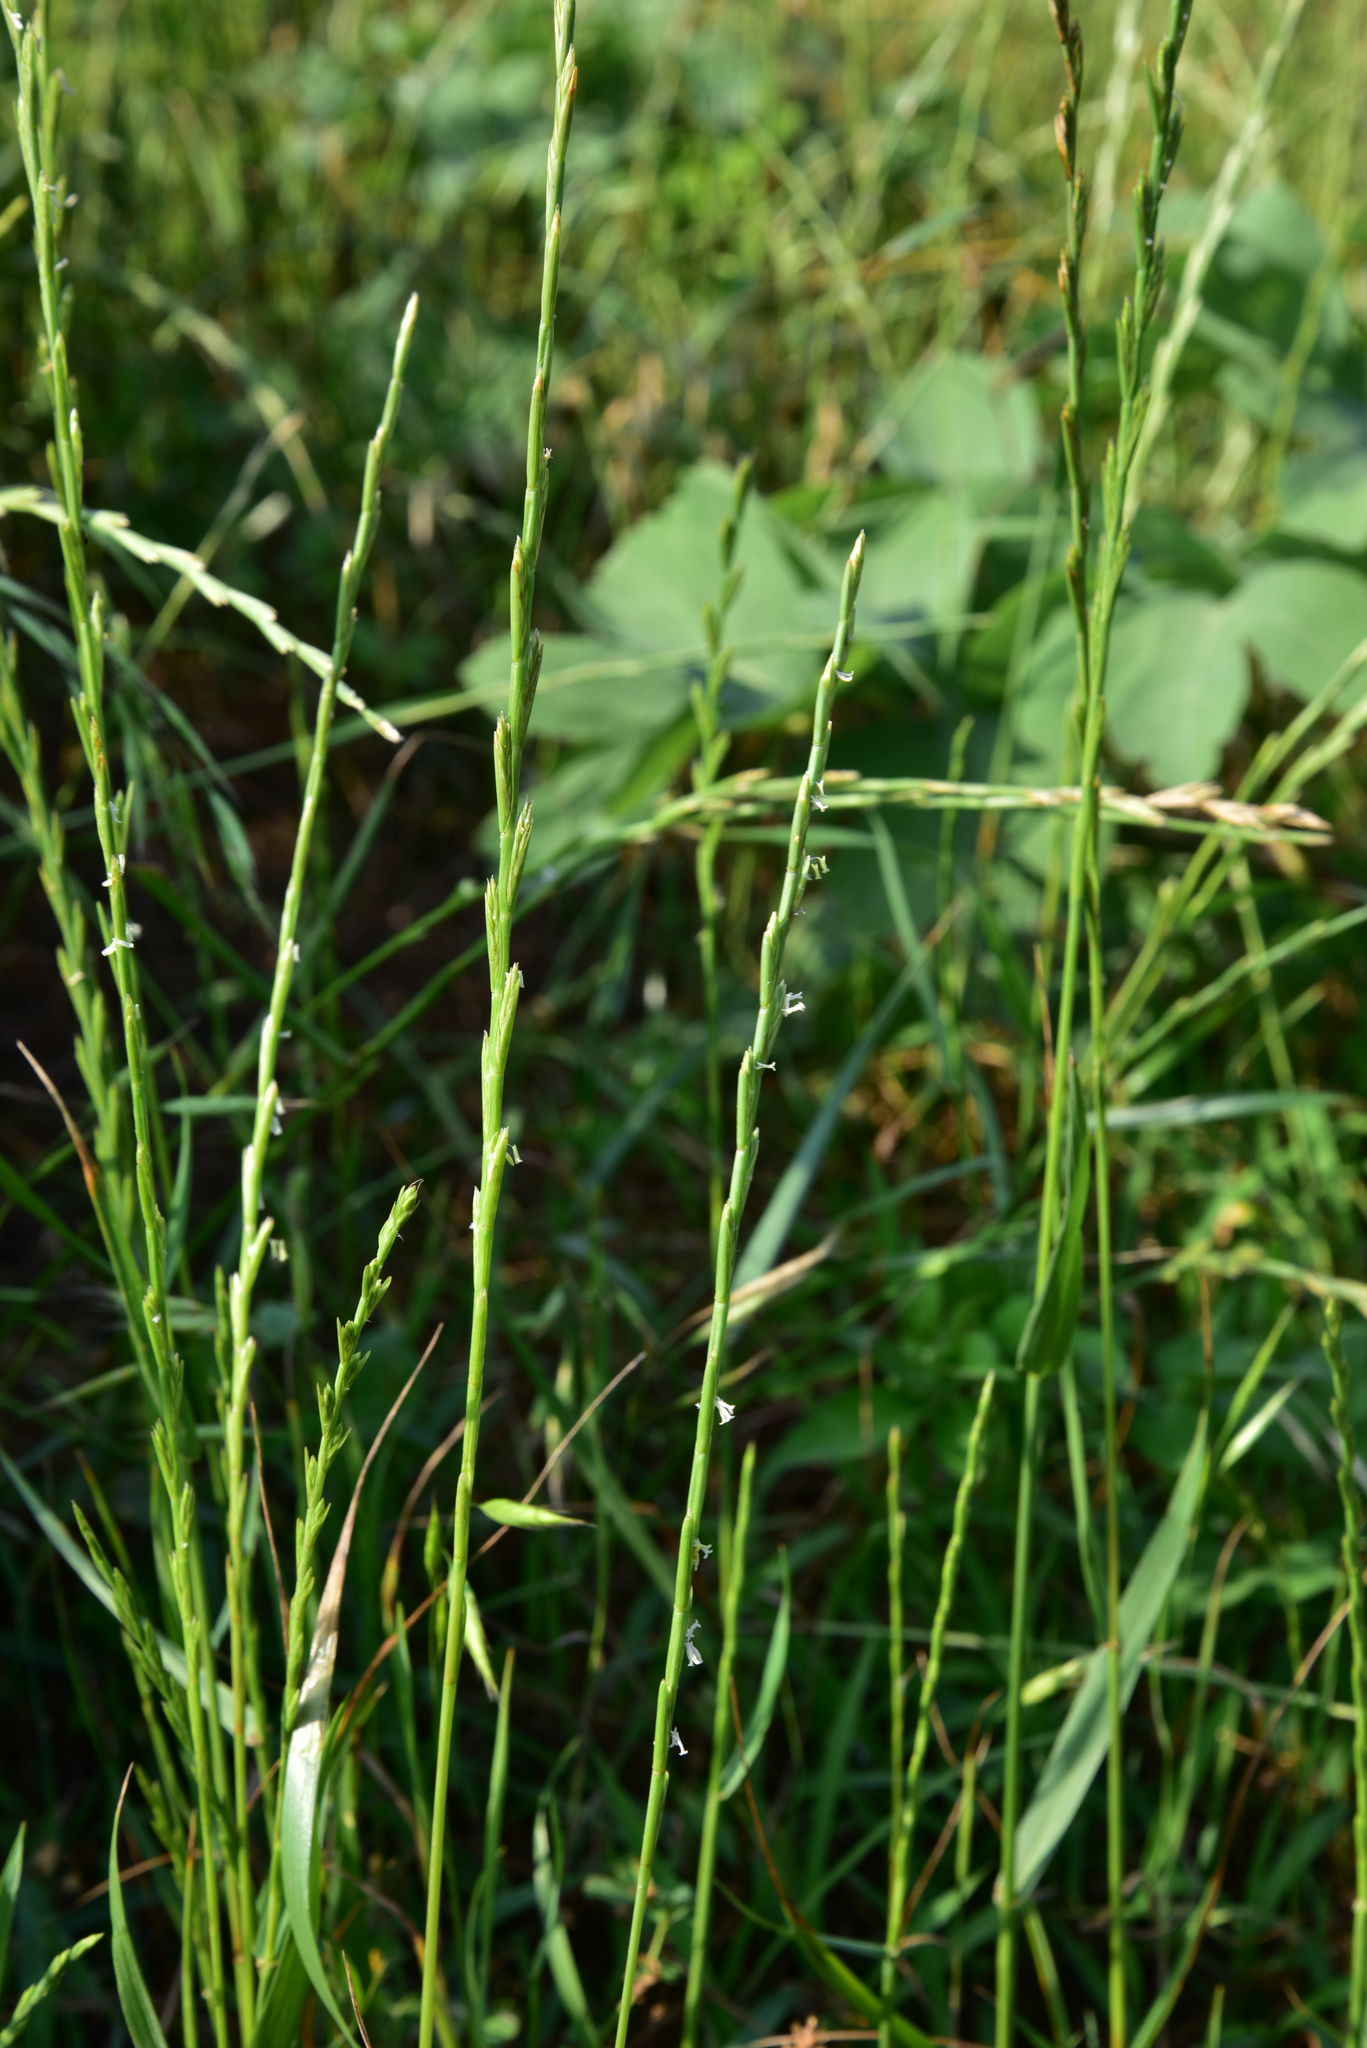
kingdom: Plantae
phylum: Tracheophyta
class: Liliopsida
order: Poales
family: Poaceae
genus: Lolium
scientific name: Lolium perenne
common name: Perennial ryegrass
